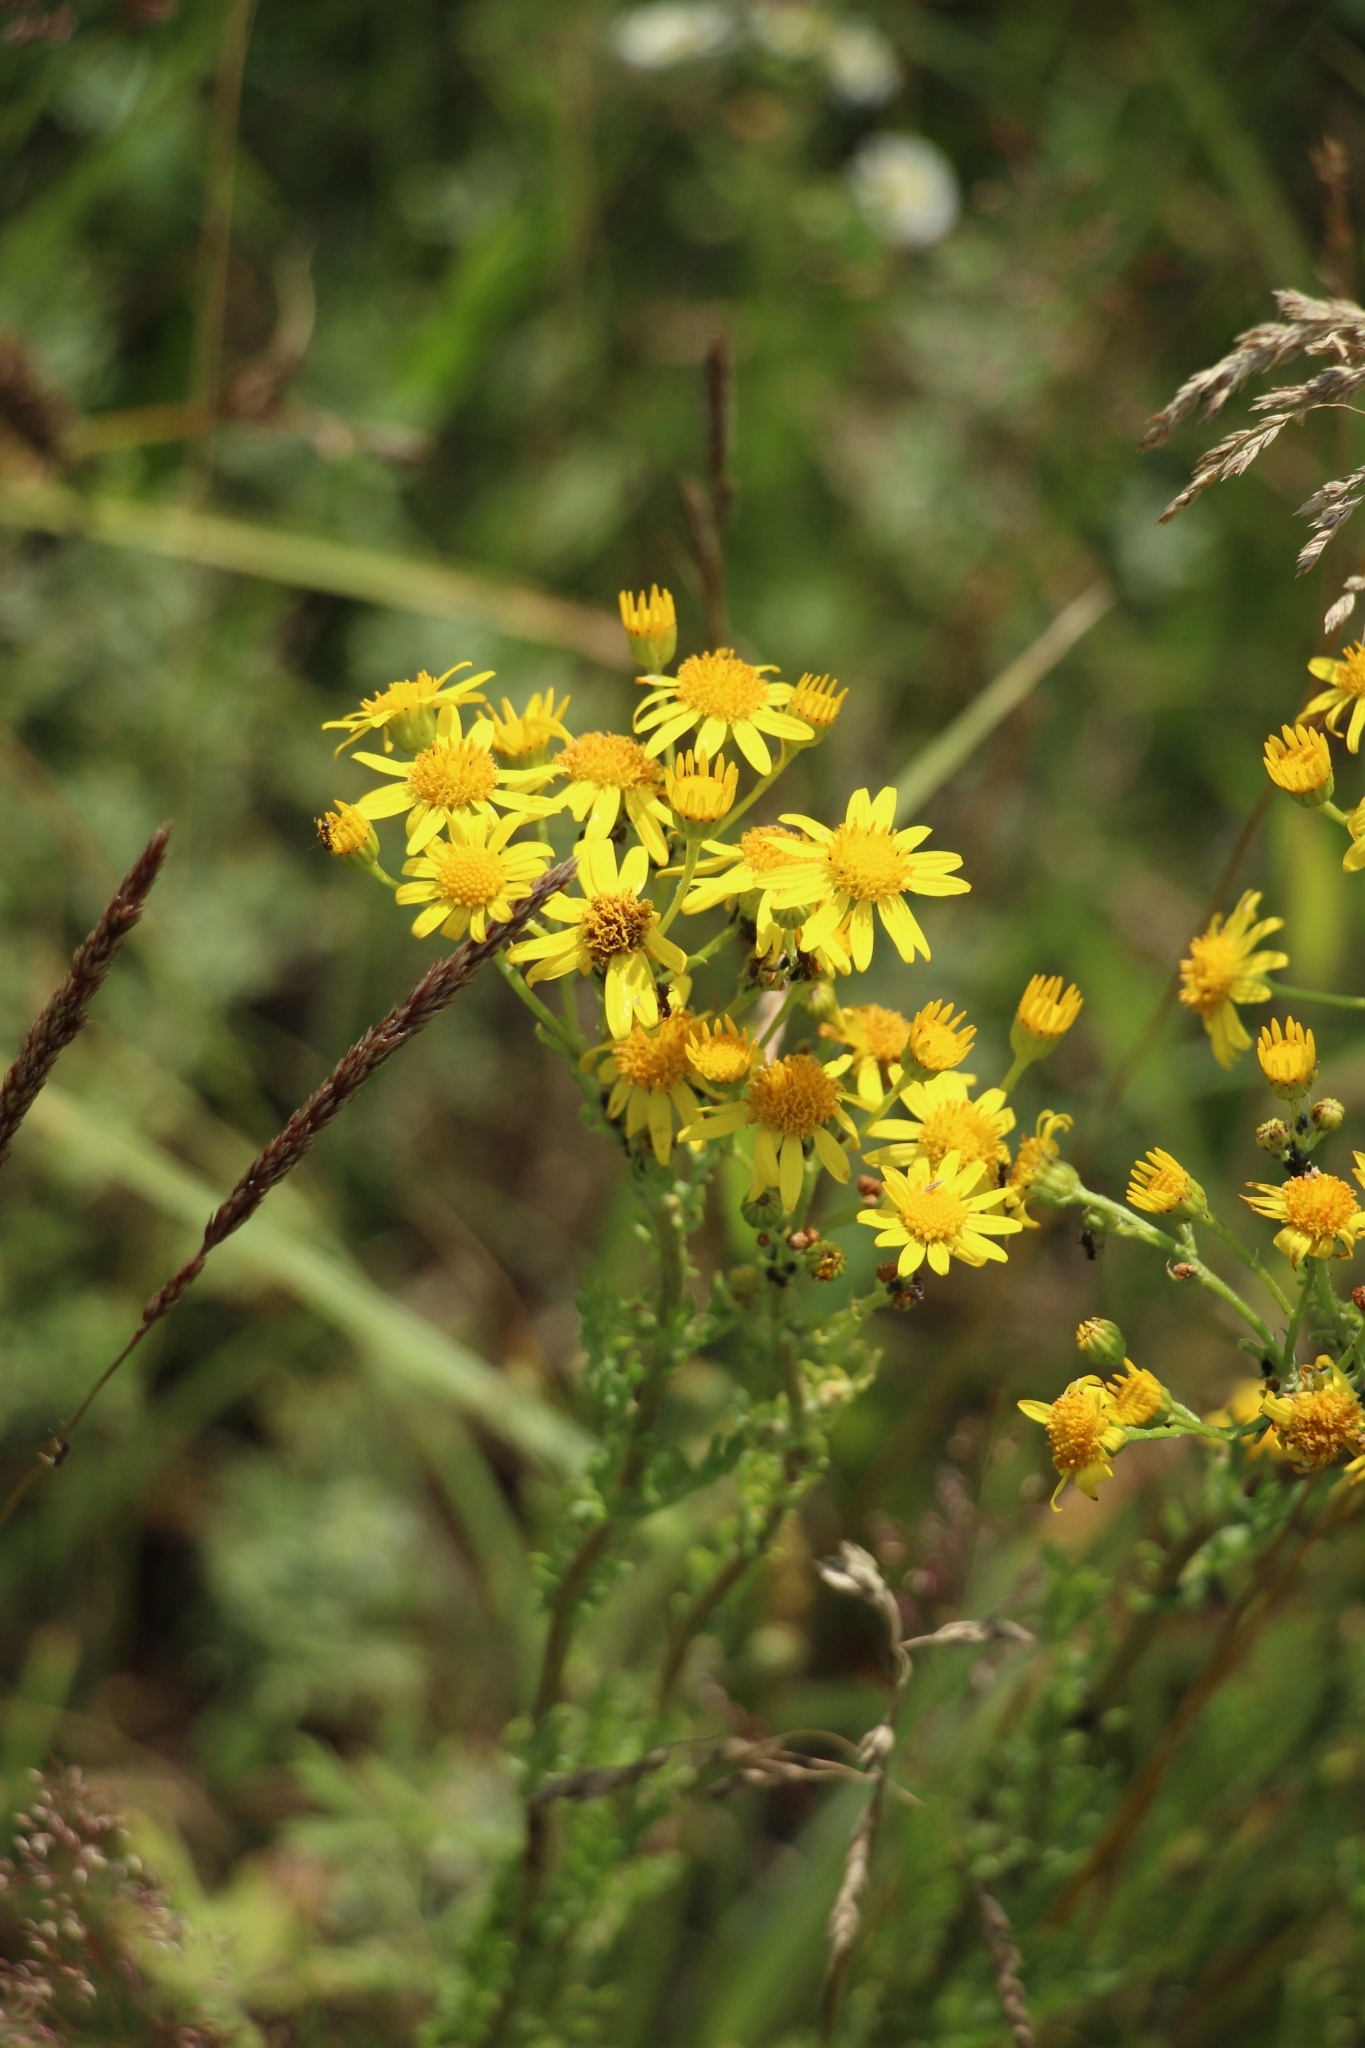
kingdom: Plantae
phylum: Tracheophyta
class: Magnoliopsida
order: Asterales
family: Asteraceae
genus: Jacobaea
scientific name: Jacobaea vulgaris
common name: Stinking willie
